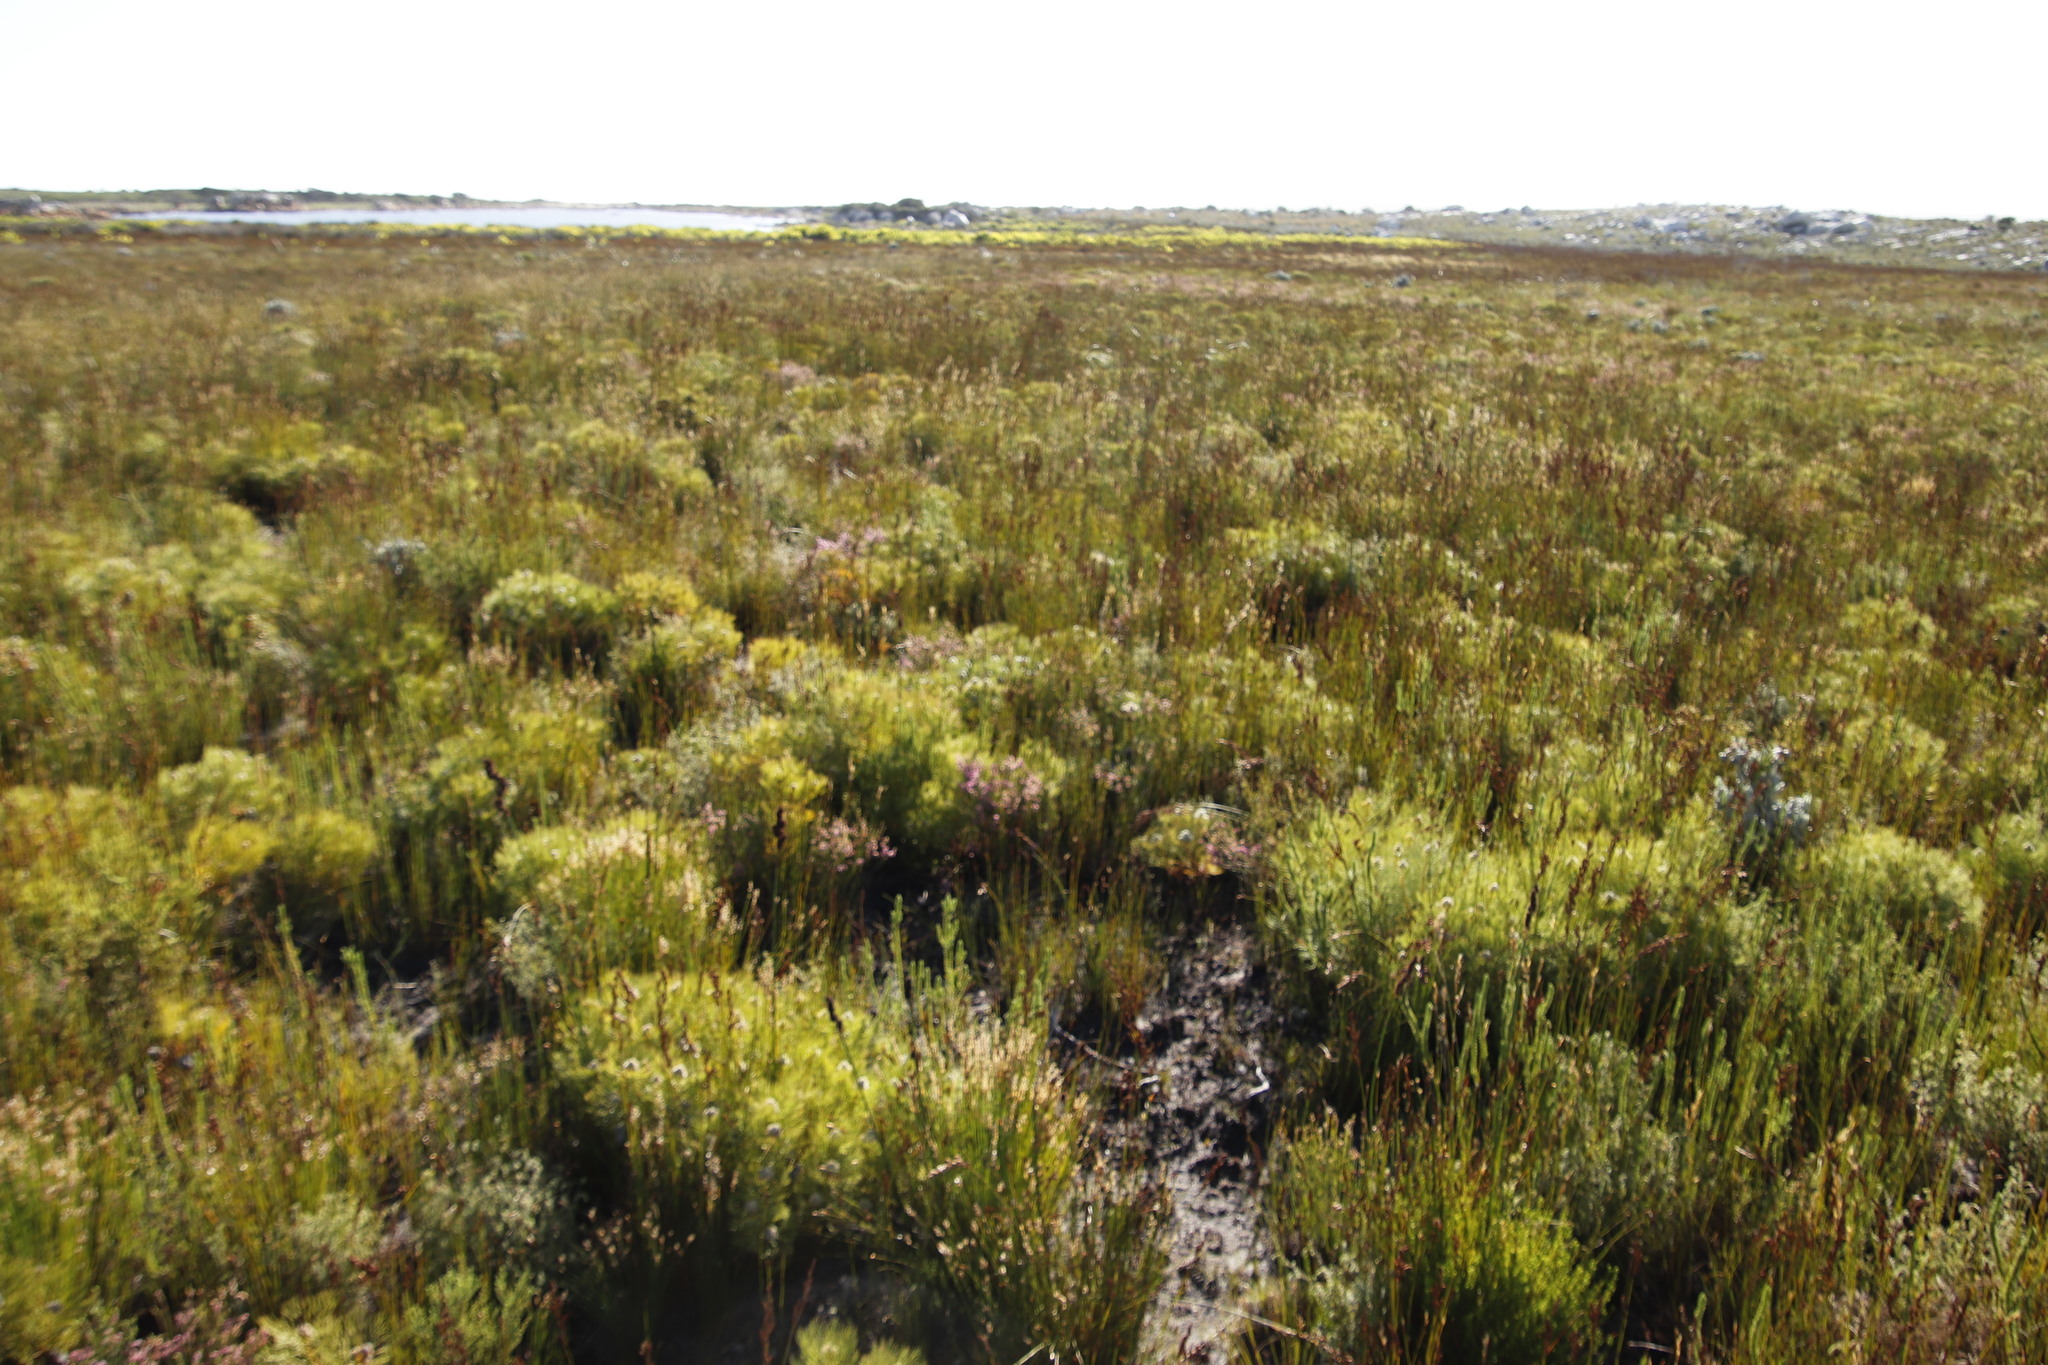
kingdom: Plantae
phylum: Tracheophyta
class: Magnoliopsida
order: Proteales
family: Proteaceae
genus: Serruria
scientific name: Serruria glomerata
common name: Cluster spiderhead
